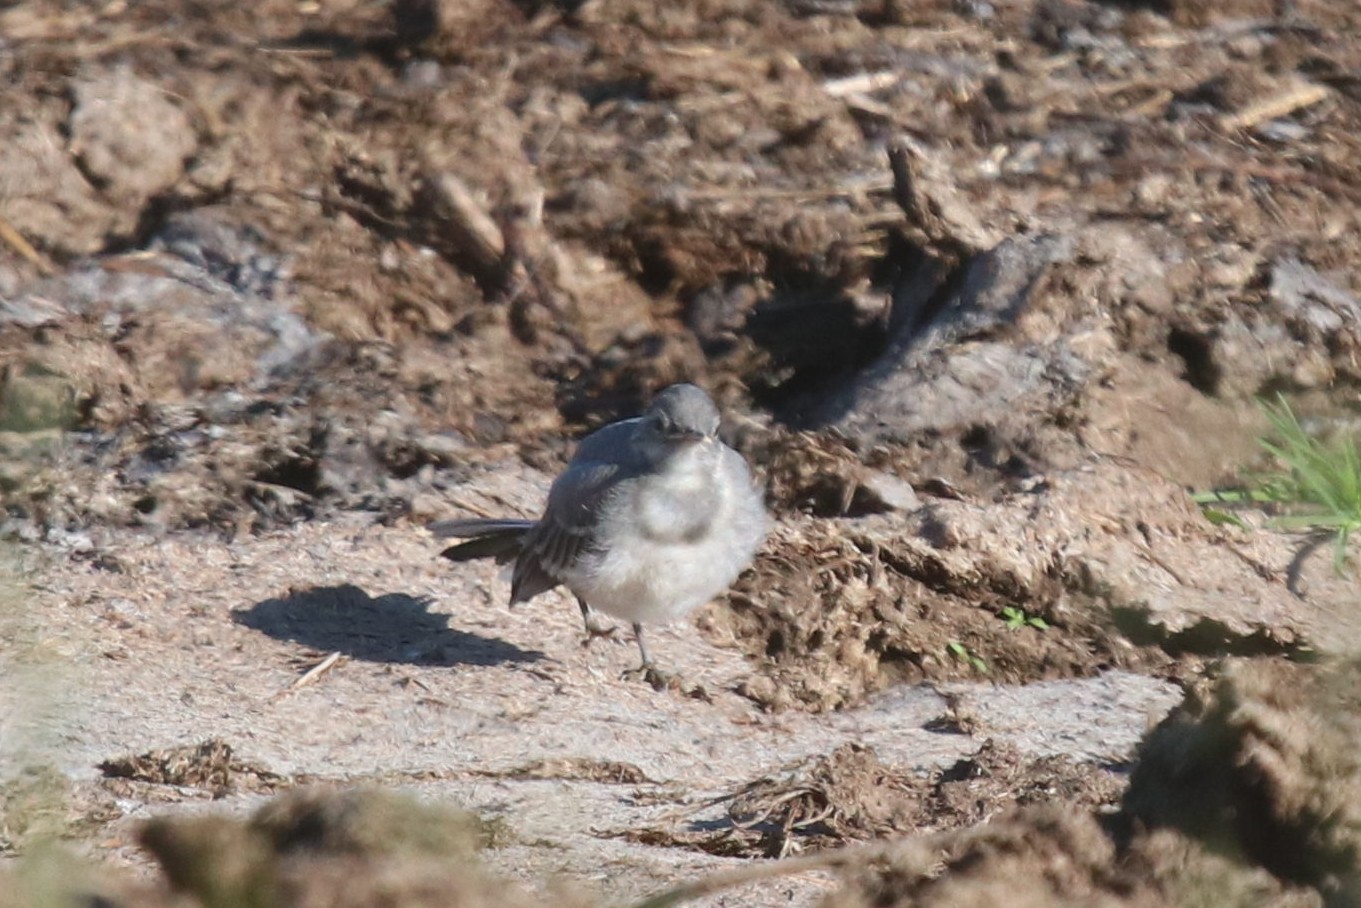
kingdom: Animalia
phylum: Chordata
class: Aves
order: Passeriformes
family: Motacillidae
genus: Motacilla
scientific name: Motacilla alba
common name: White wagtail
